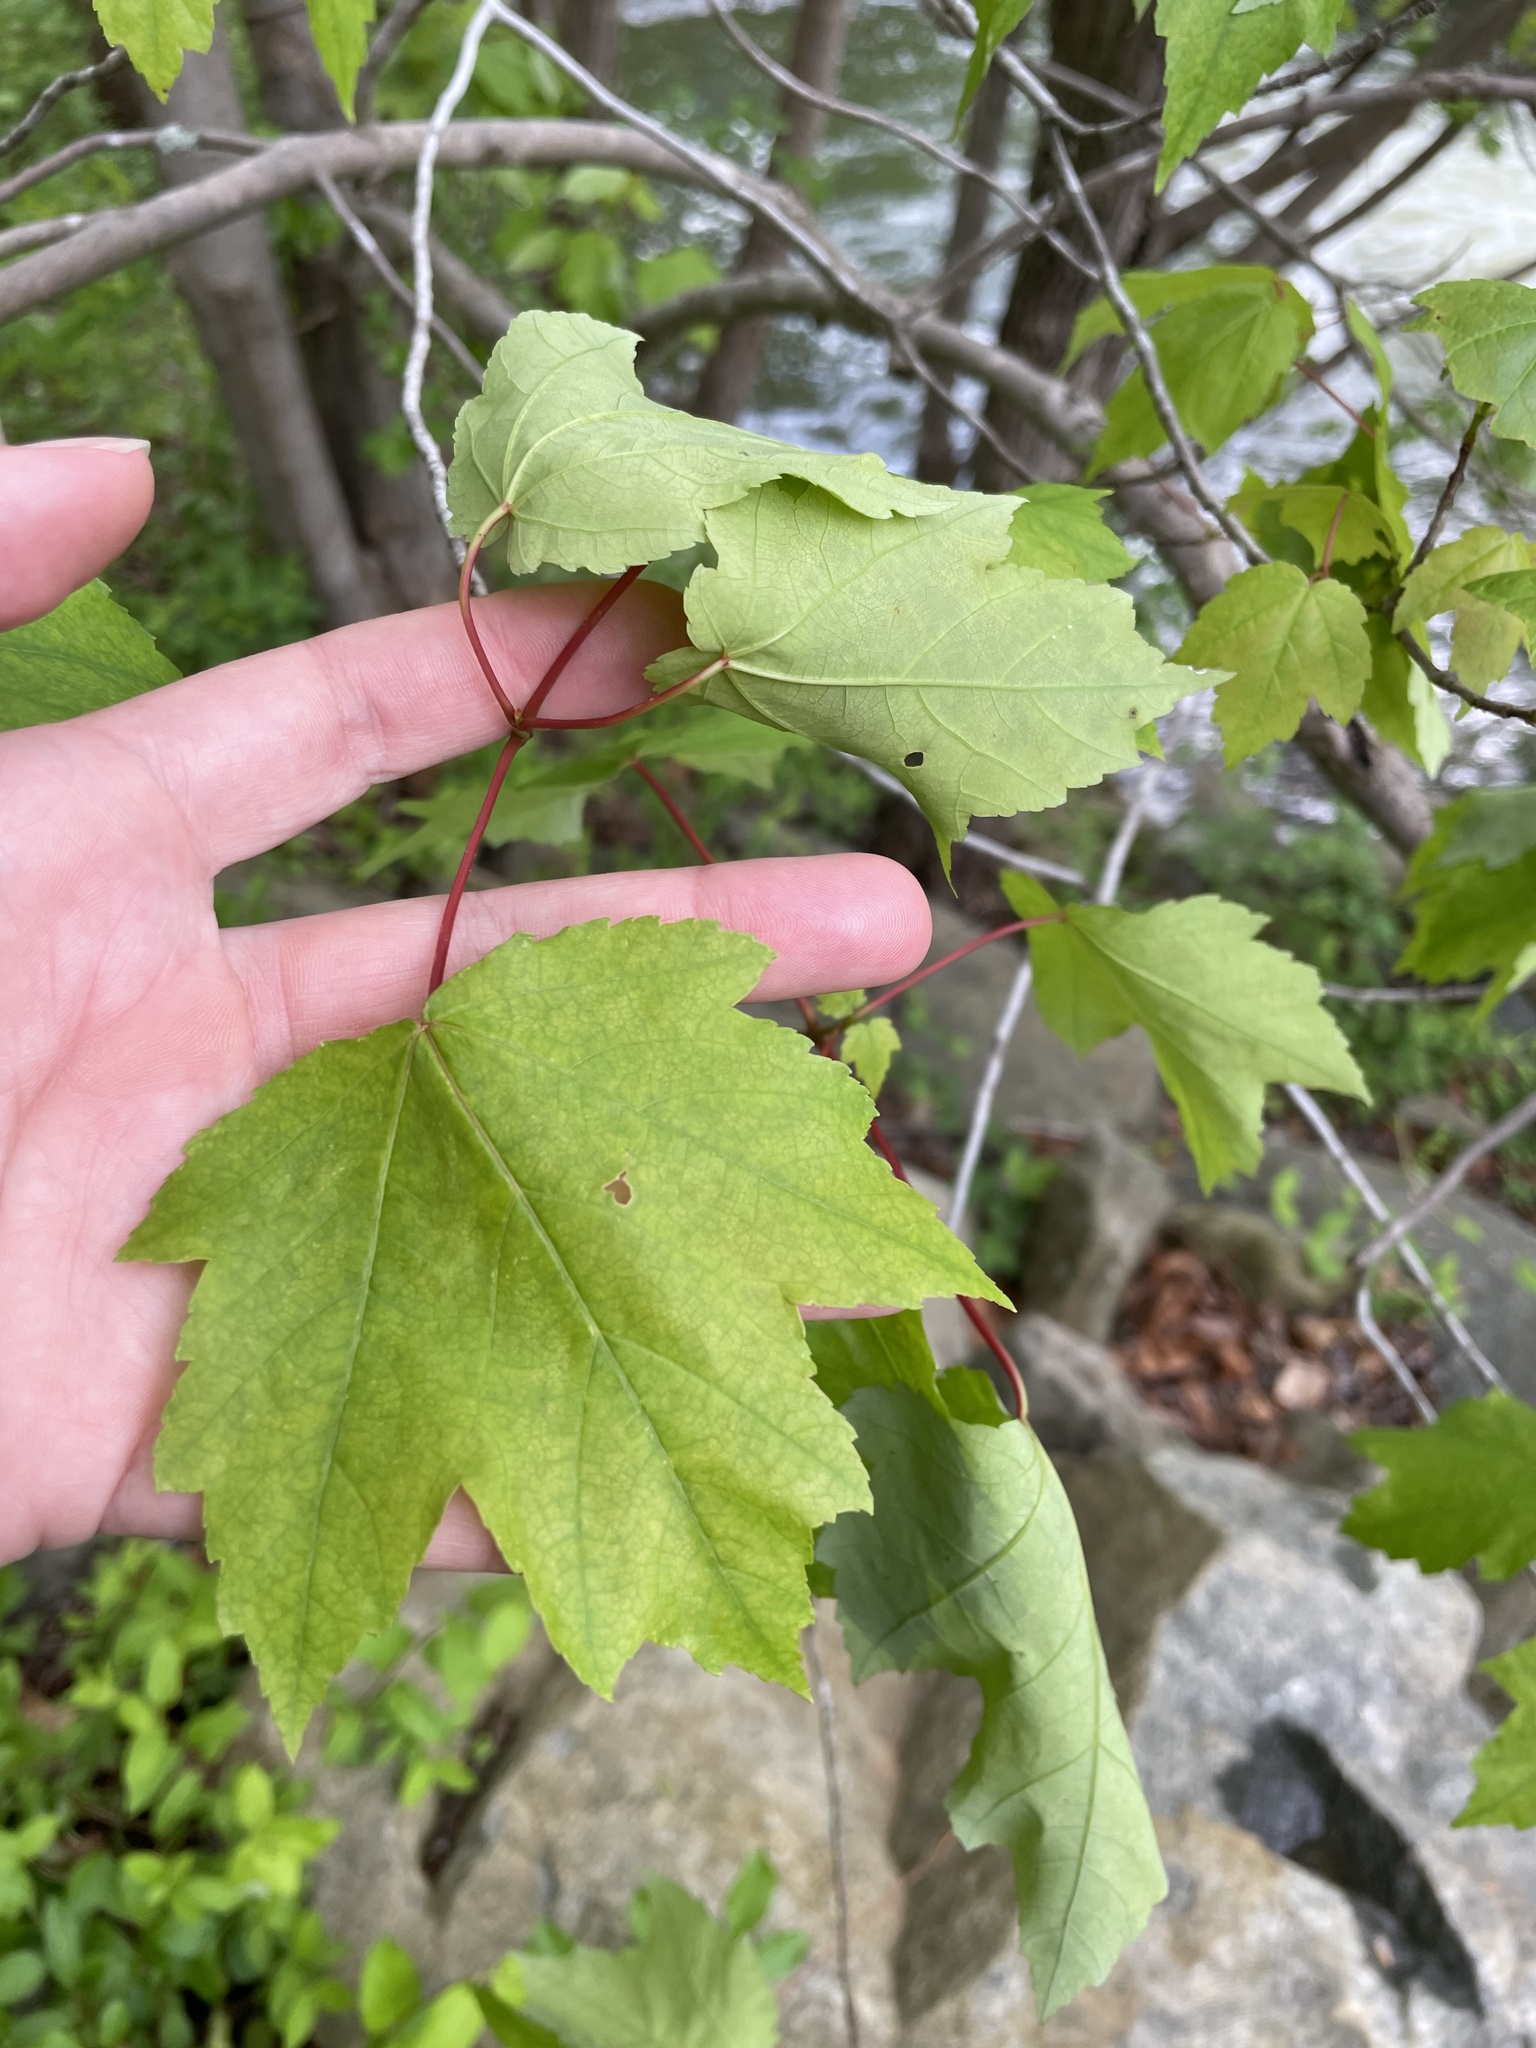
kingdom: Plantae
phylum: Tracheophyta
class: Magnoliopsida
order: Sapindales
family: Sapindaceae
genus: Acer
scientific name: Acer rubrum
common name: Red maple
